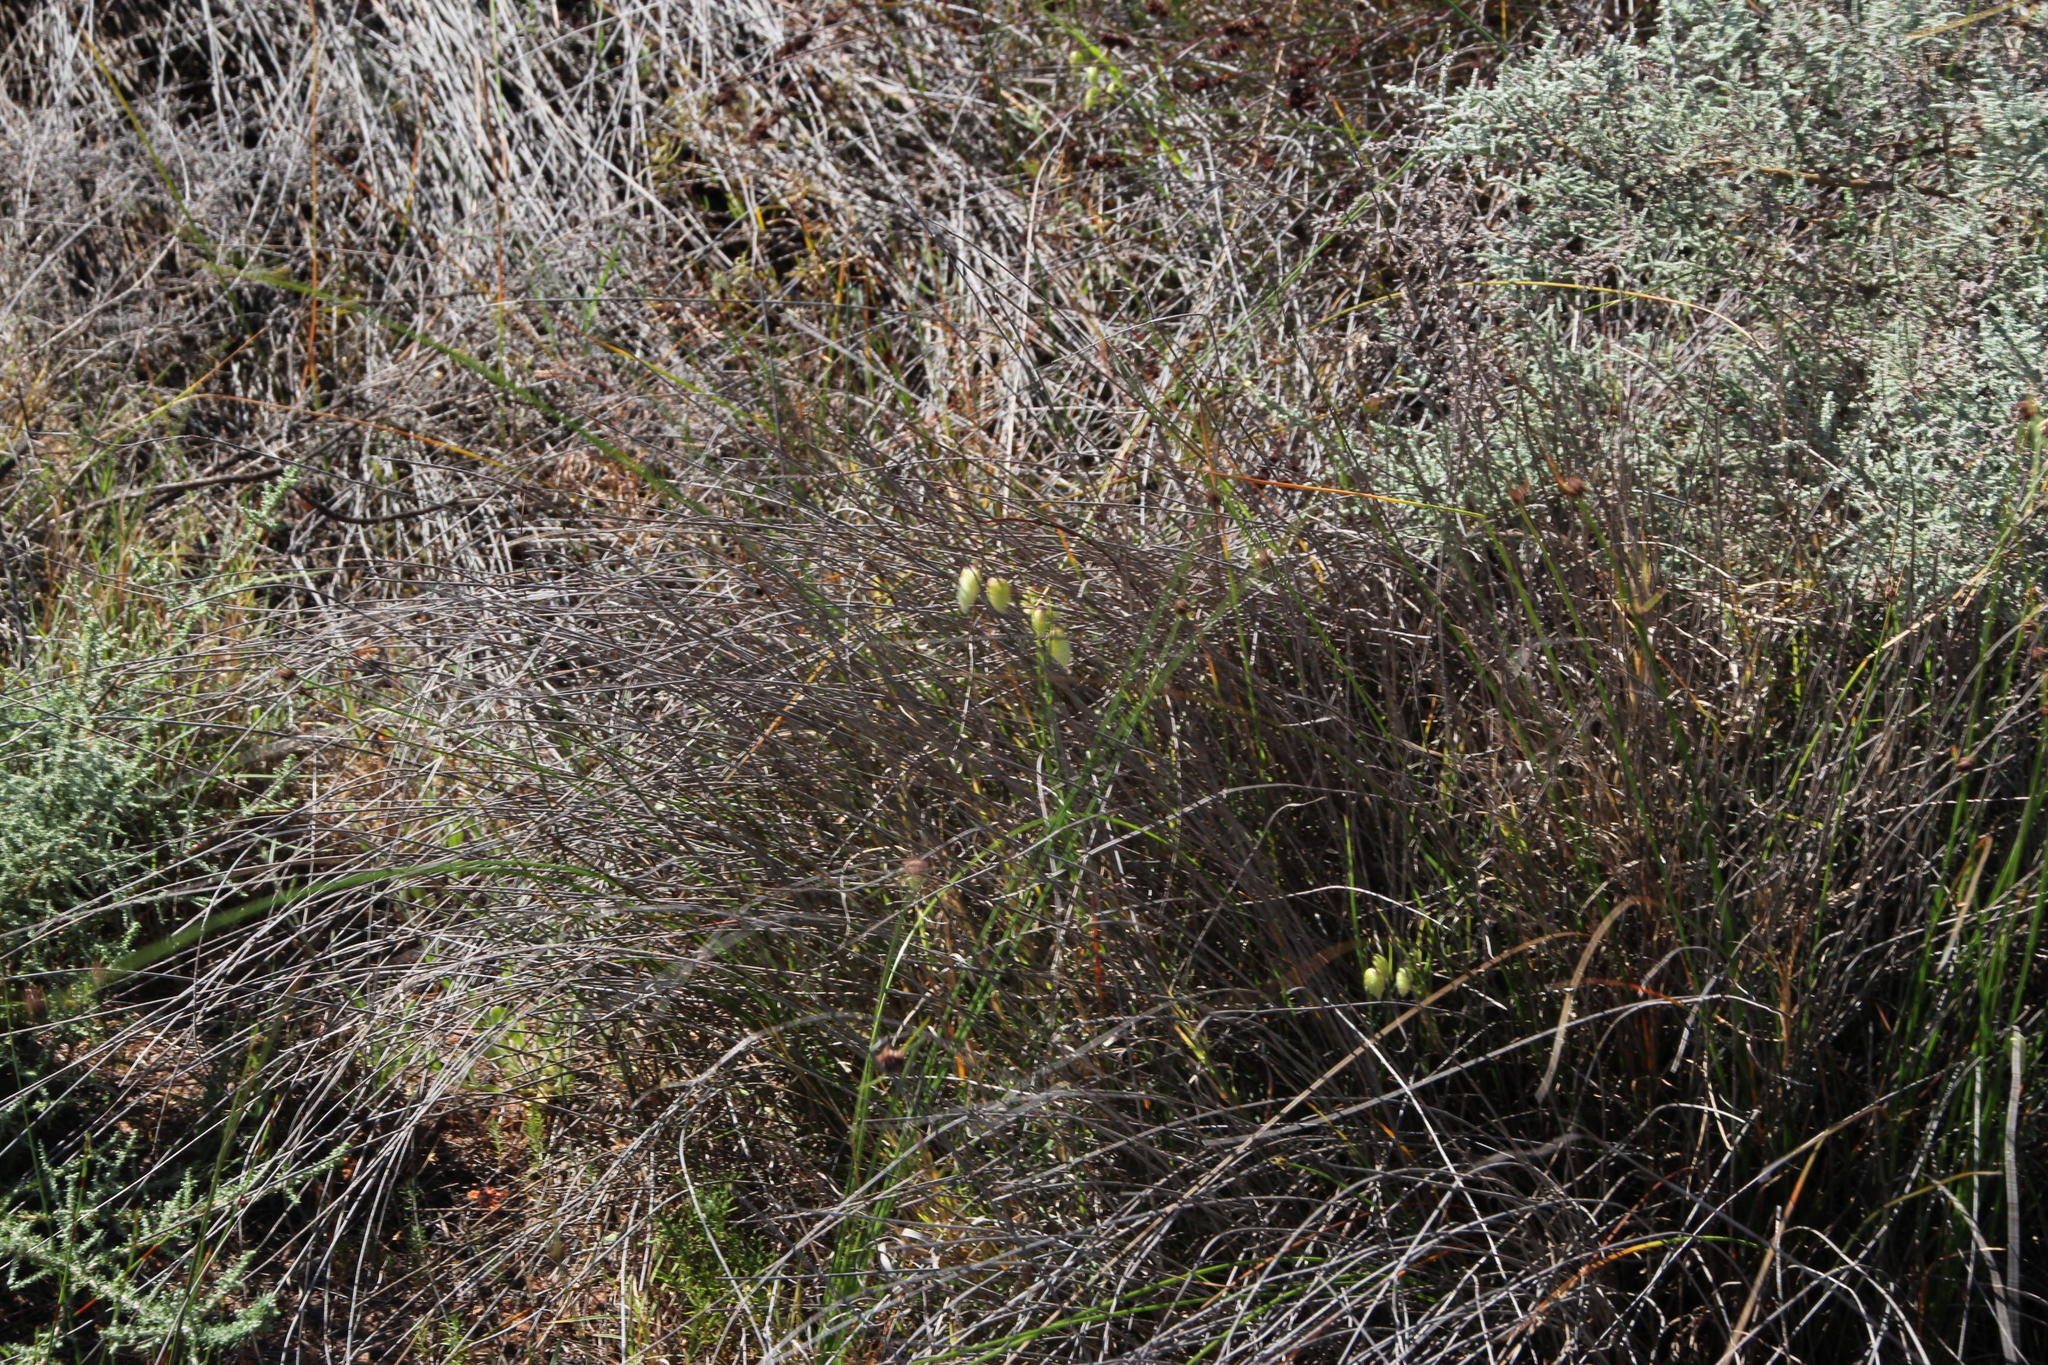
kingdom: Plantae
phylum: Tracheophyta
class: Liliopsida
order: Poales
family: Poaceae
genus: Briza
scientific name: Briza maxima
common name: Big quakinggrass
